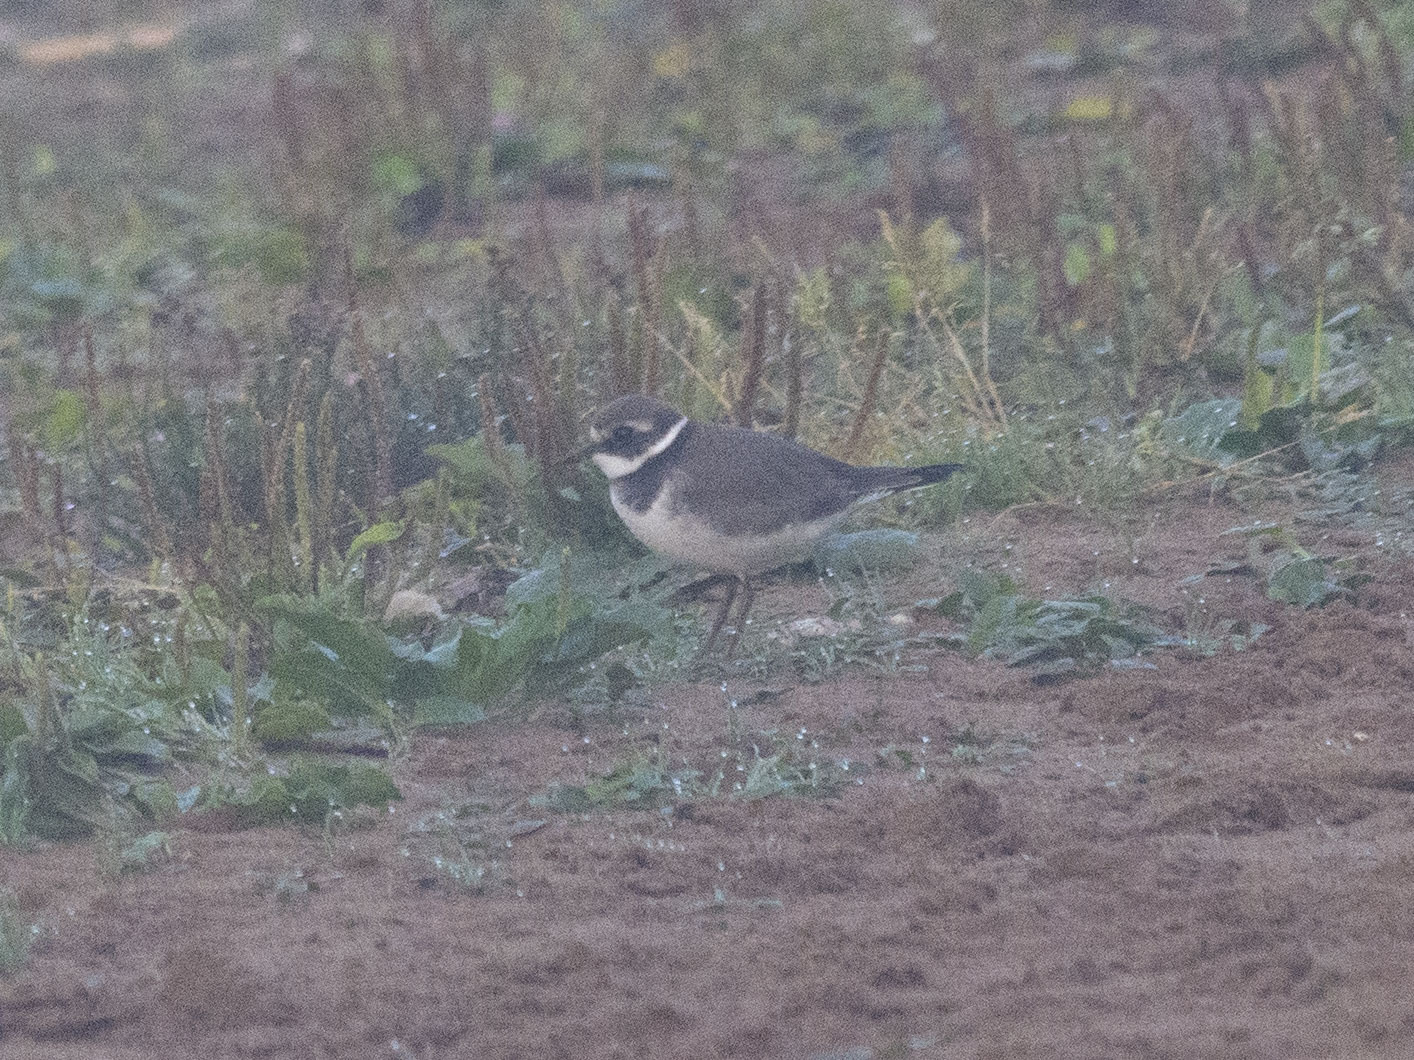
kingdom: Animalia
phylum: Chordata
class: Aves
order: Charadriiformes
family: Charadriidae
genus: Charadrius
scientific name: Charadrius hiaticula
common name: Common ringed plover
